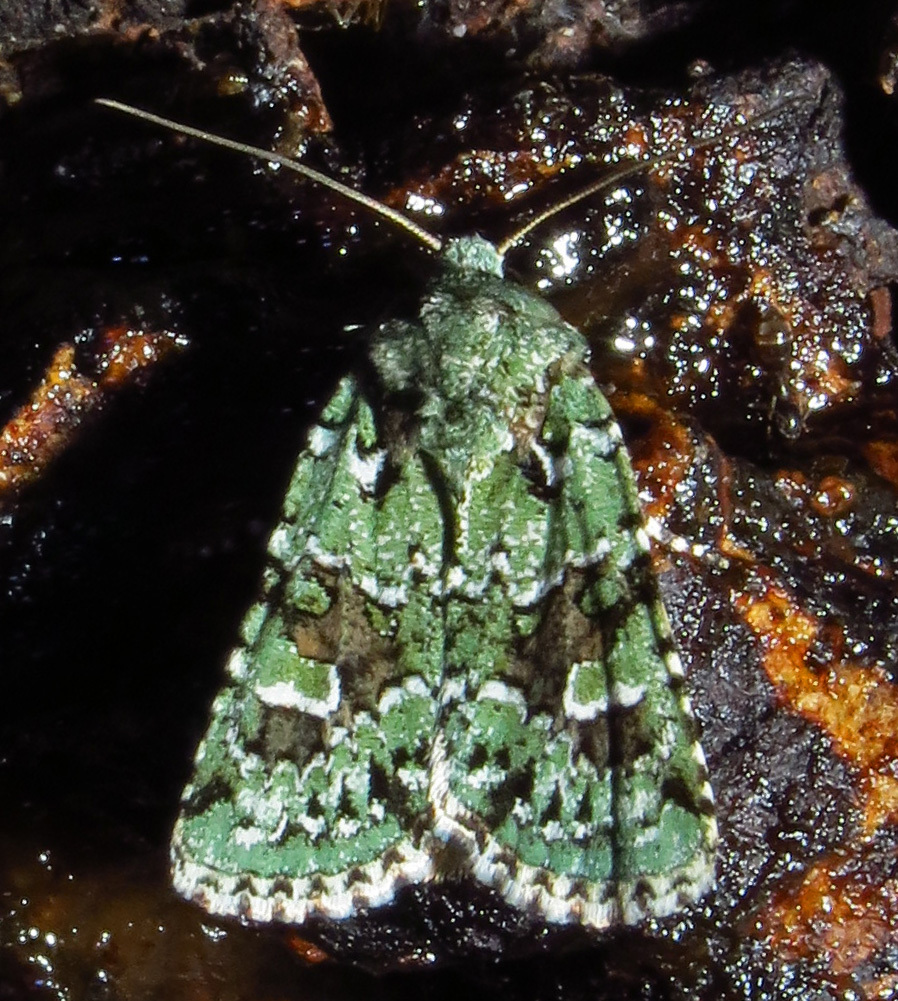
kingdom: Animalia
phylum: Arthropoda
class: Insecta
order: Lepidoptera
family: Noctuidae
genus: Lacinipolia
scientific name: Lacinipolia laudabilis
